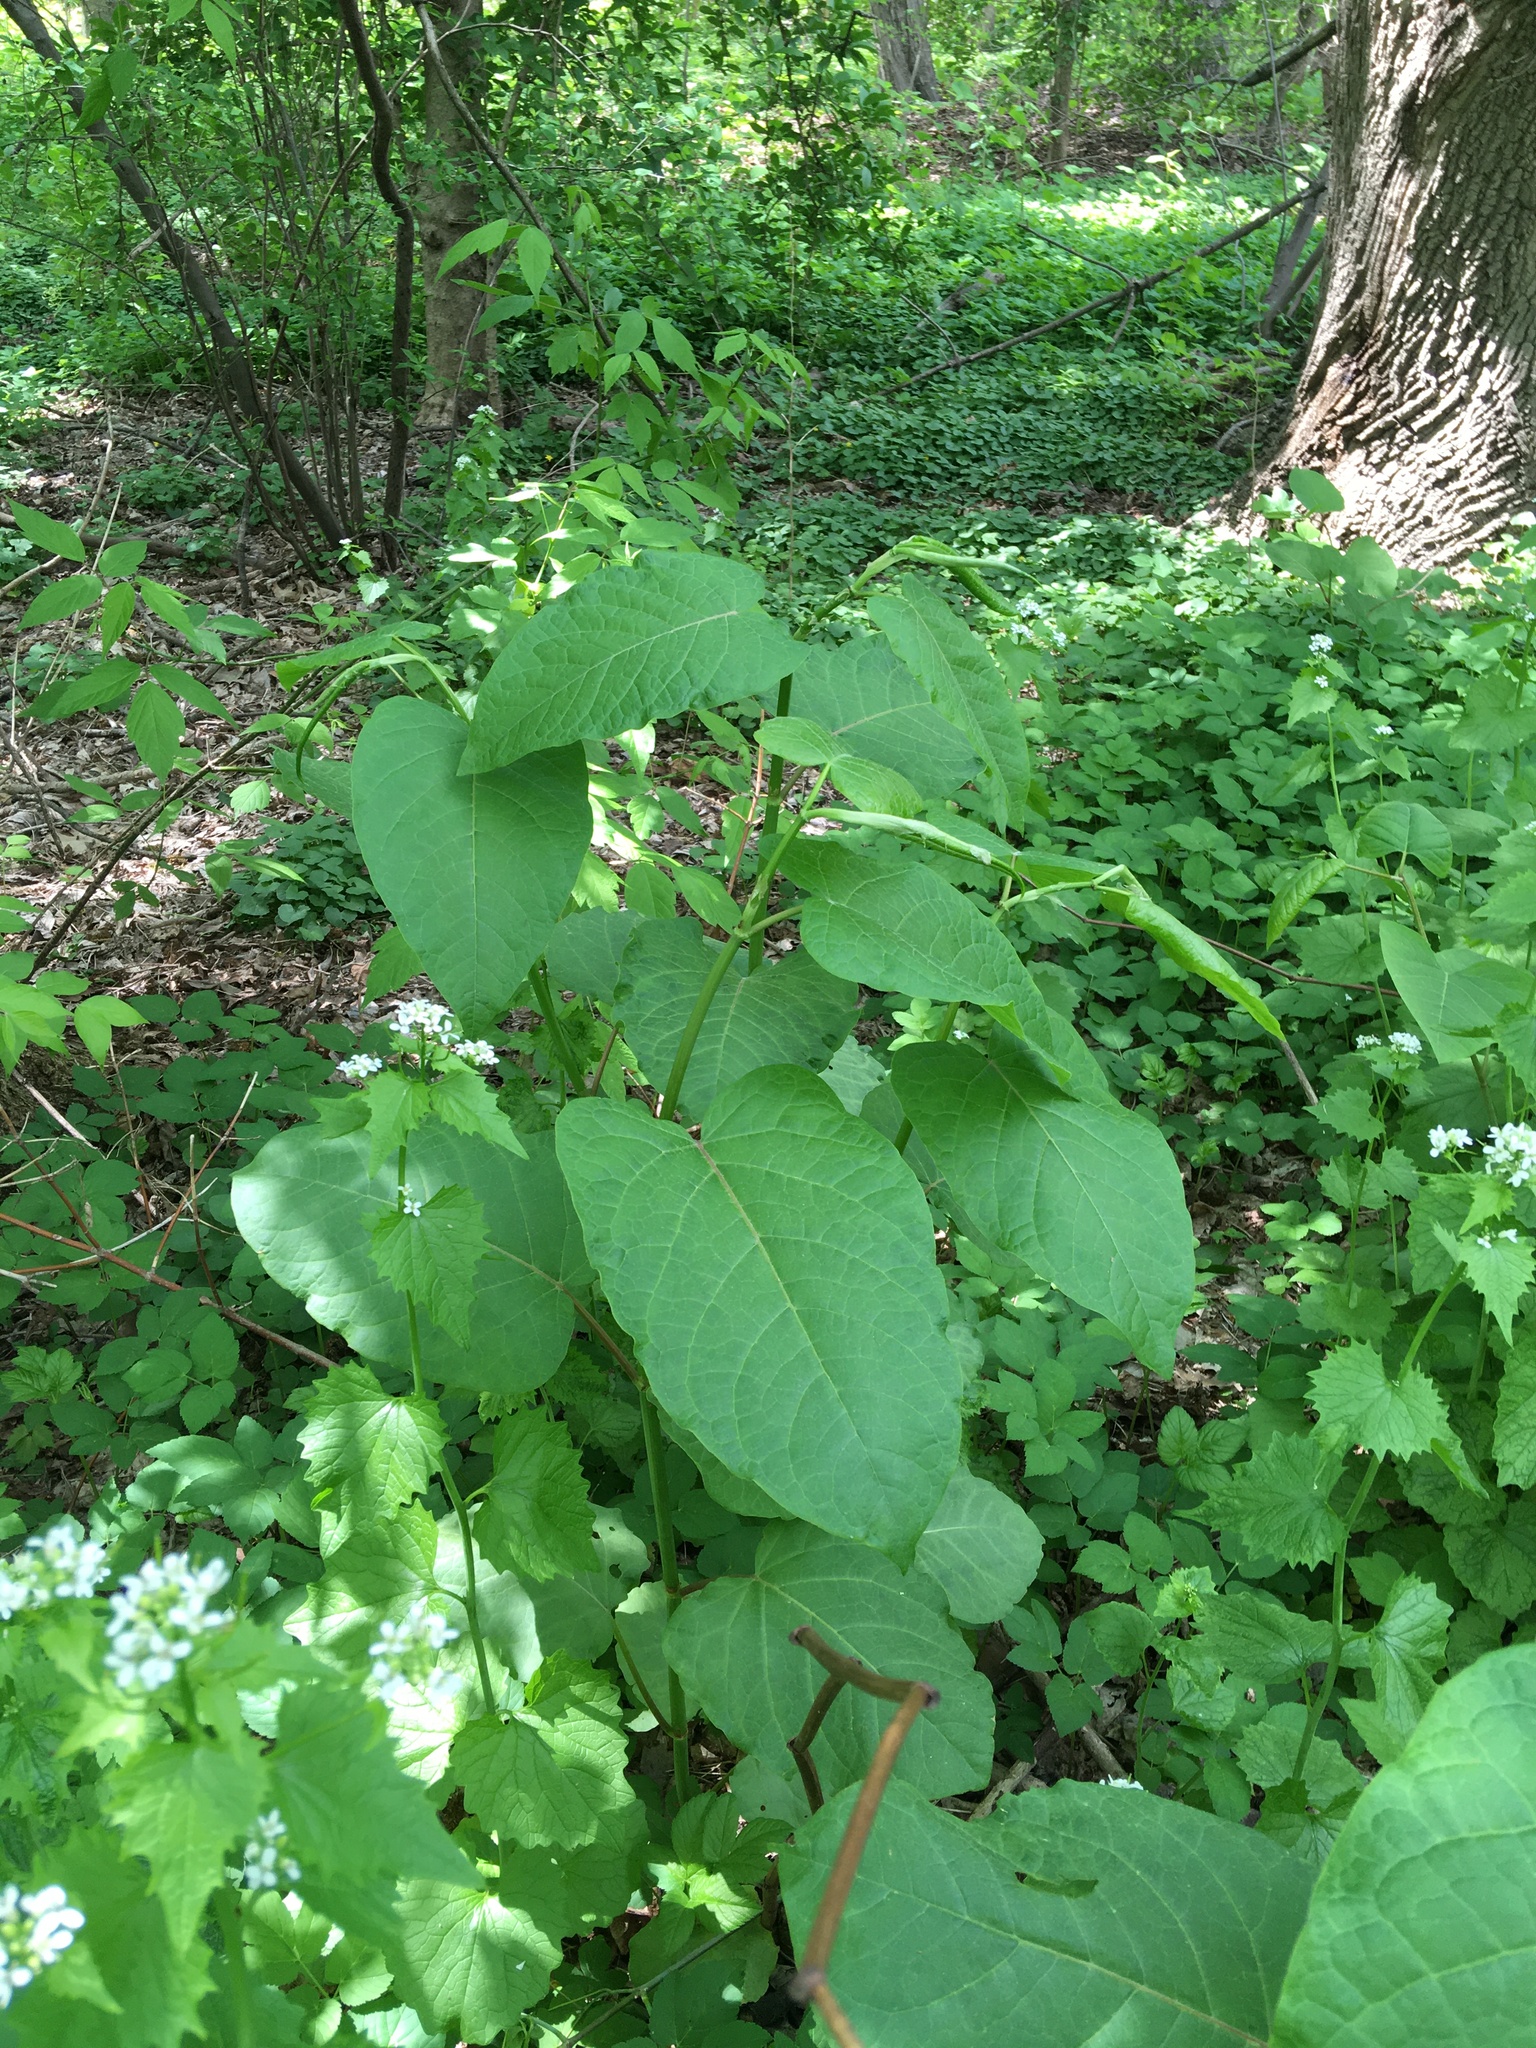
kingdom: Plantae
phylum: Tracheophyta
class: Magnoliopsida
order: Caryophyllales
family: Polygonaceae
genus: Reynoutria
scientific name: Reynoutria sachalinensis
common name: Giant knotweed
